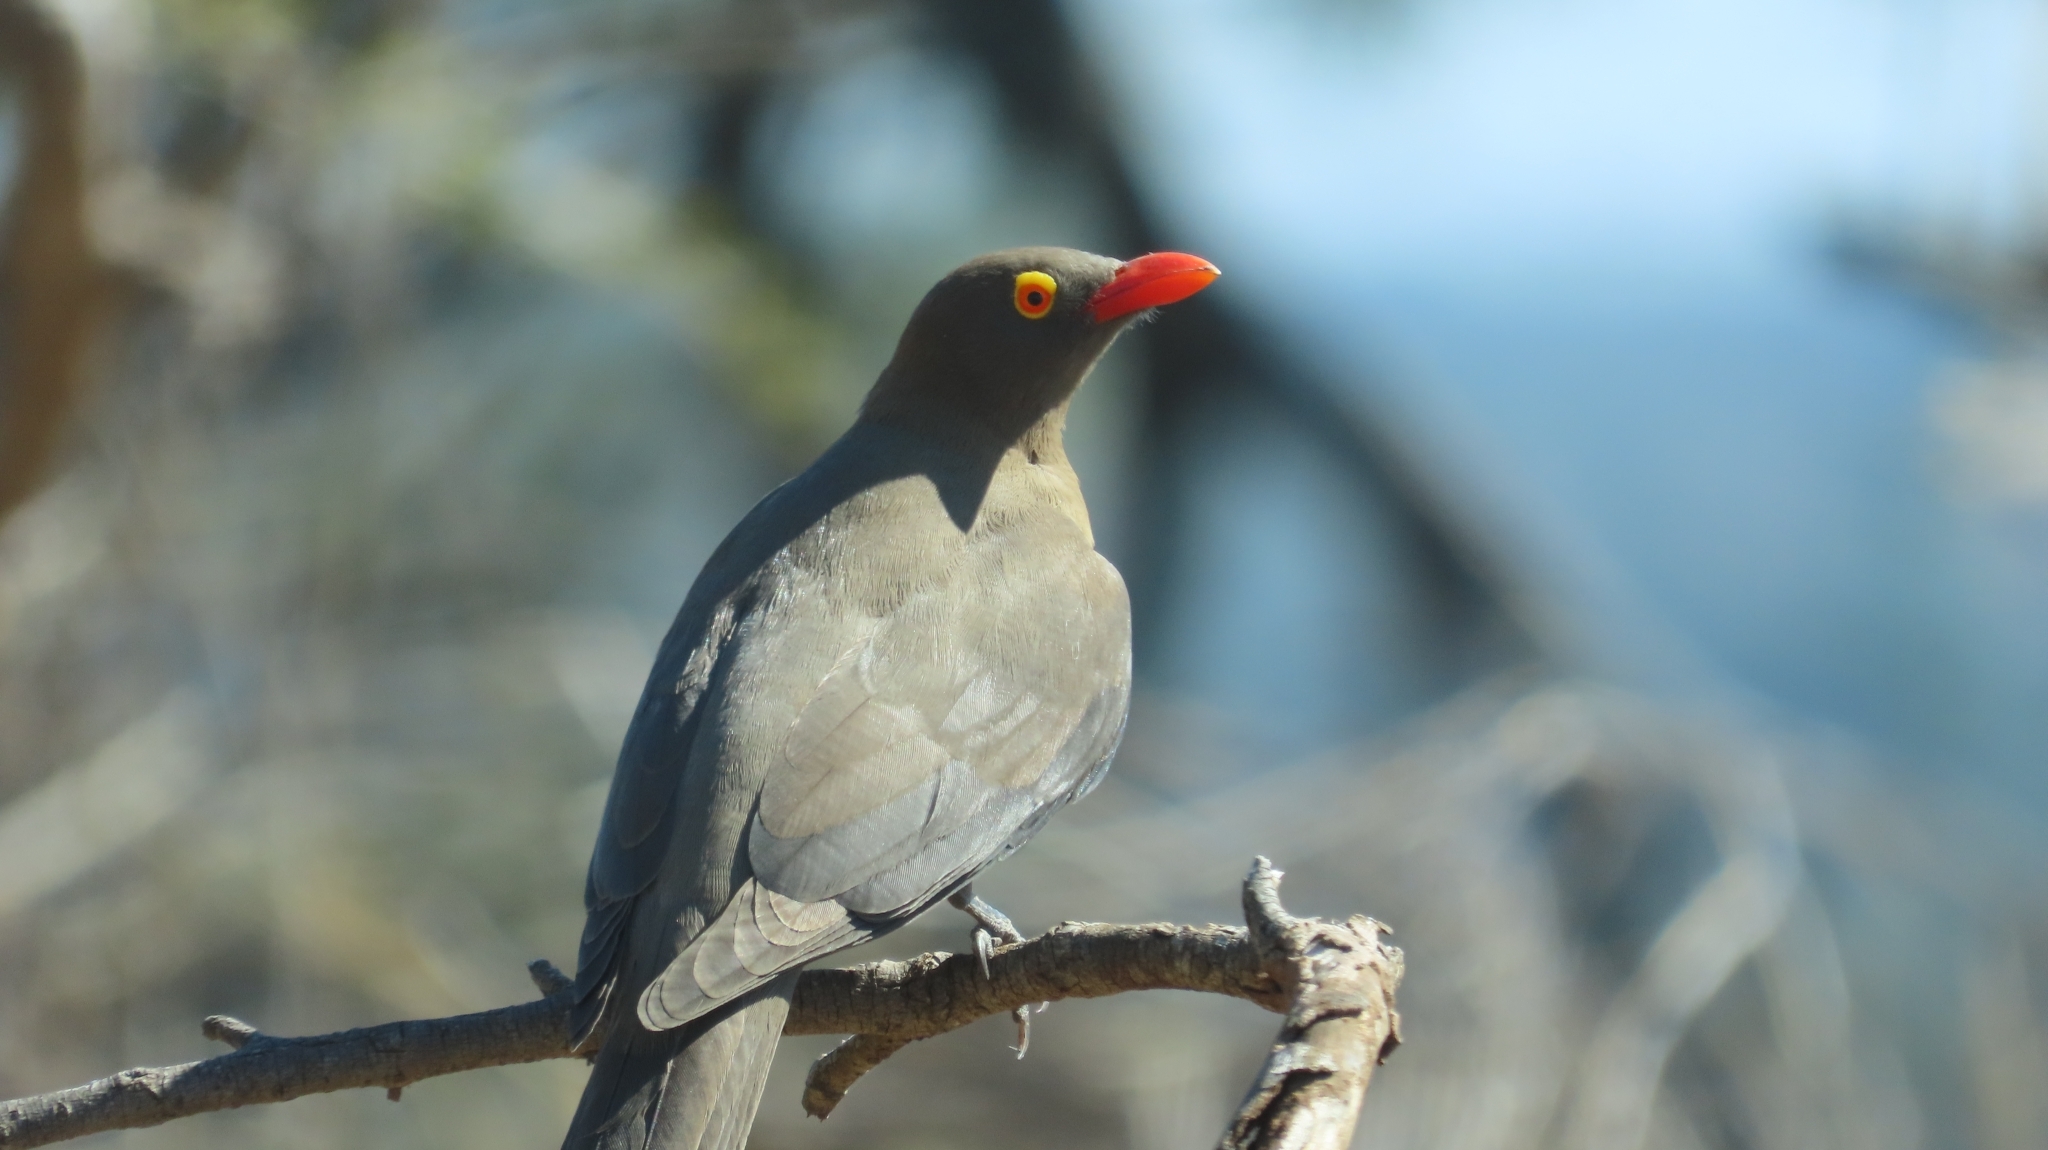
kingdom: Animalia
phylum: Chordata
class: Aves
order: Passeriformes
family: Buphagidae
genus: Buphagus
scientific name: Buphagus erythrorhynchus
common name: Red-billed oxpecker
